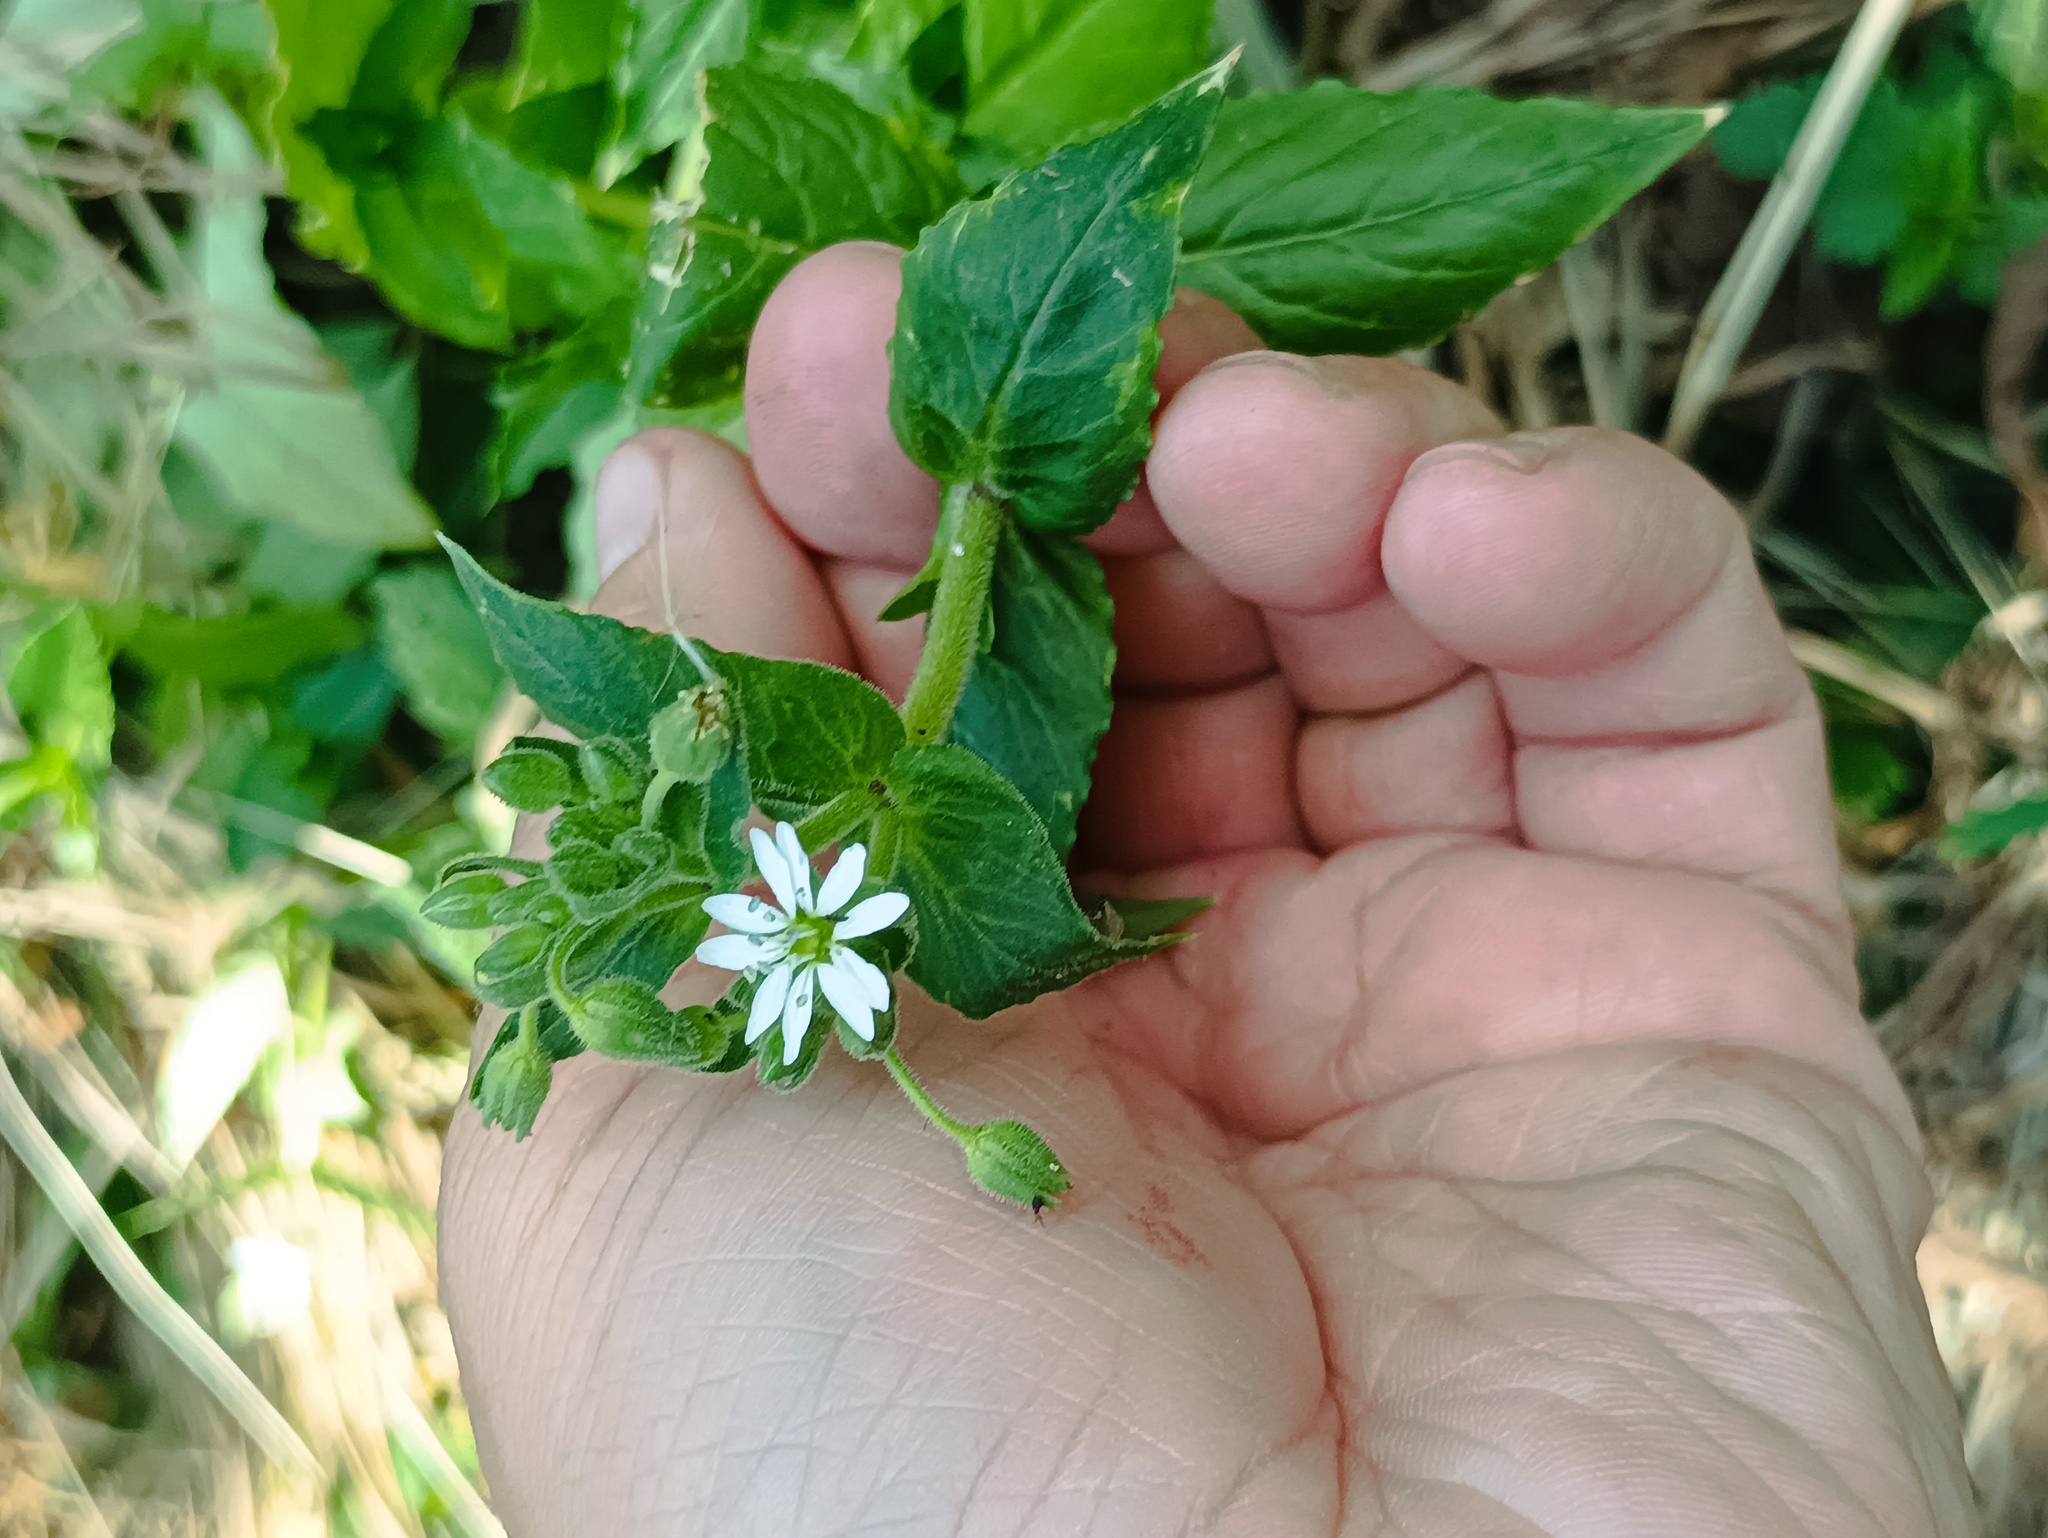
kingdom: Plantae
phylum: Tracheophyta
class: Magnoliopsida
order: Caryophyllales
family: Caryophyllaceae
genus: Stellaria
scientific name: Stellaria aquatica
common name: Water chickweed
